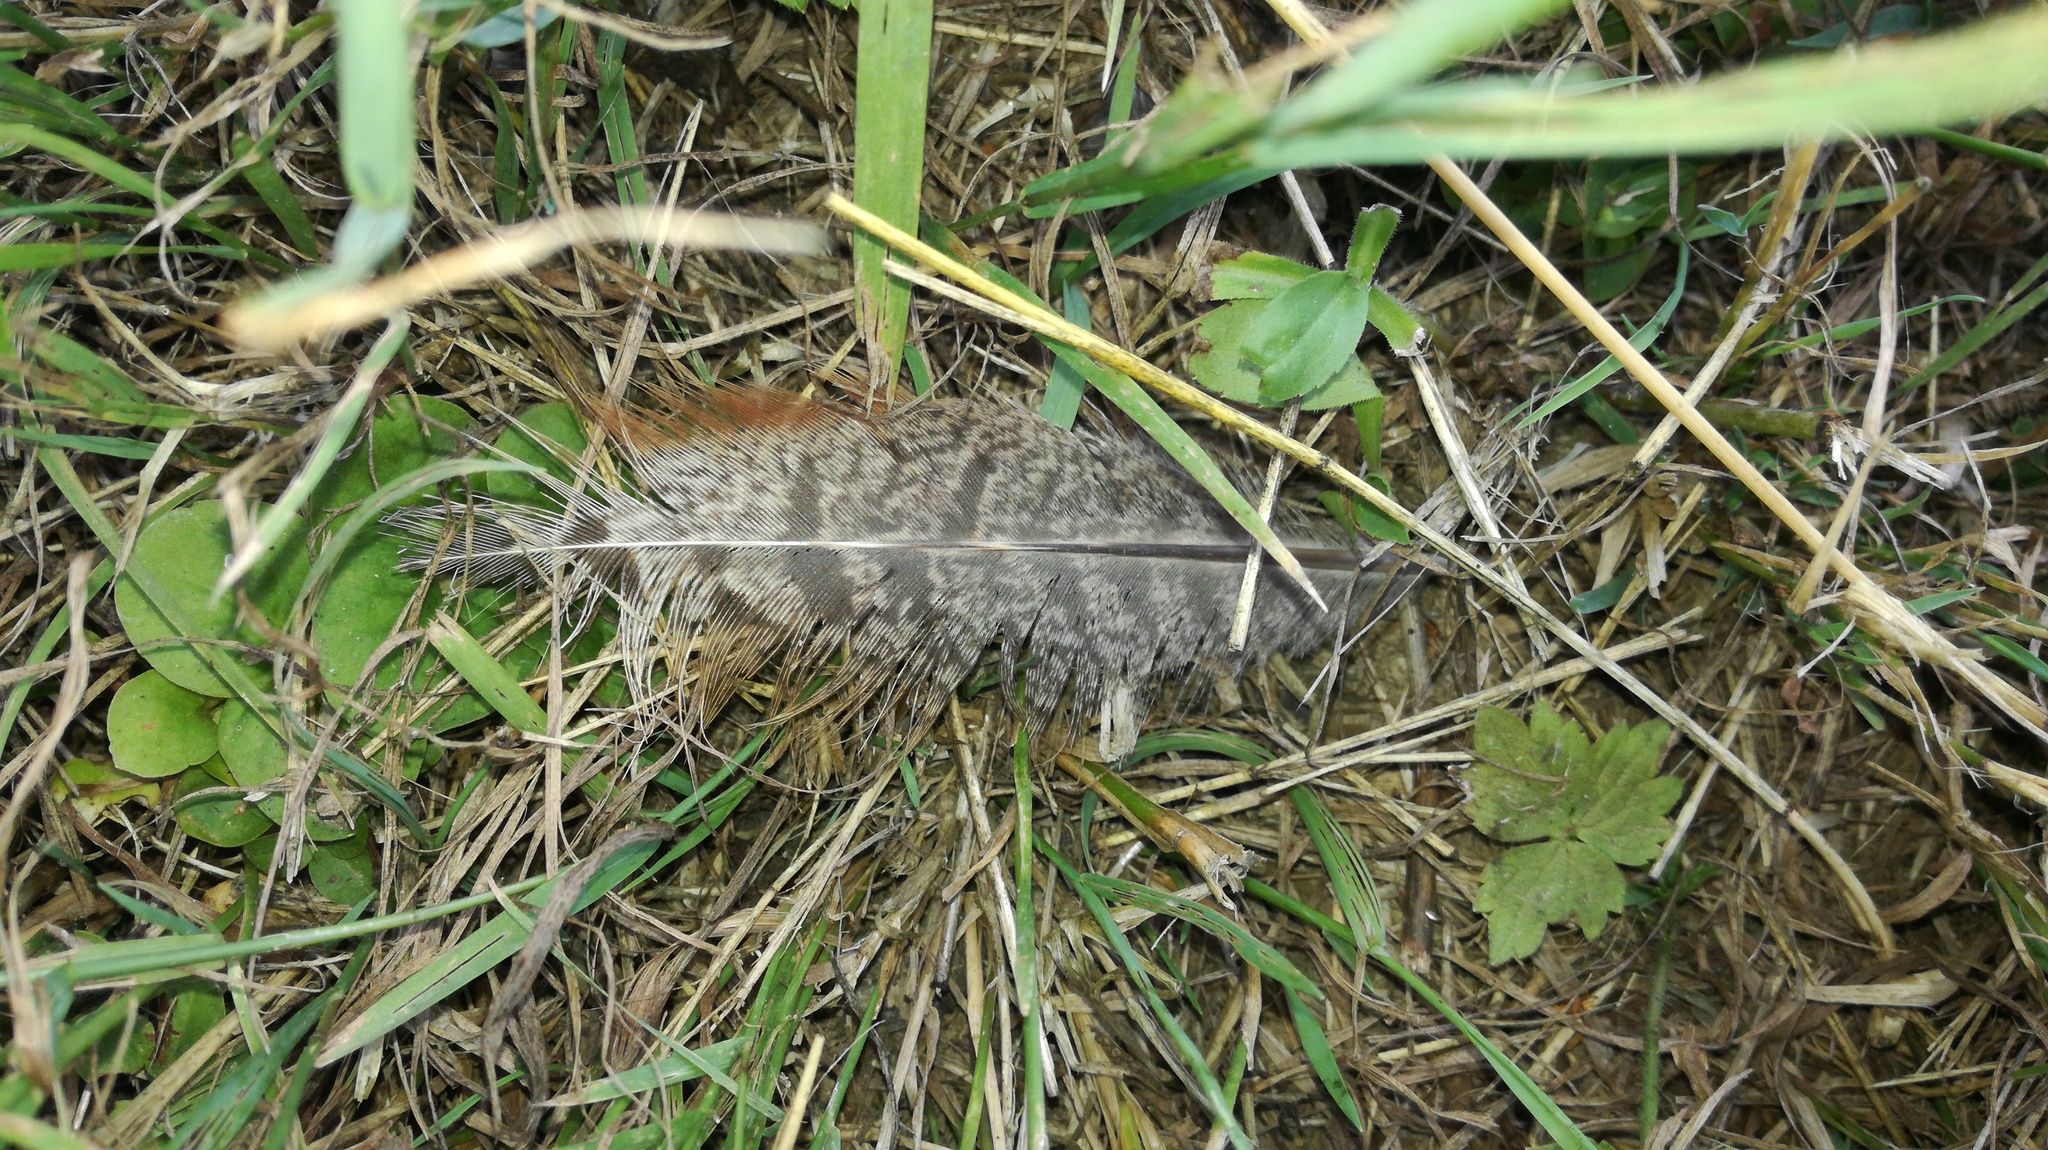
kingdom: Animalia
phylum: Chordata
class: Aves
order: Galliformes
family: Phasianidae
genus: Phasianus
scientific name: Phasianus colchicus
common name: Common pheasant
